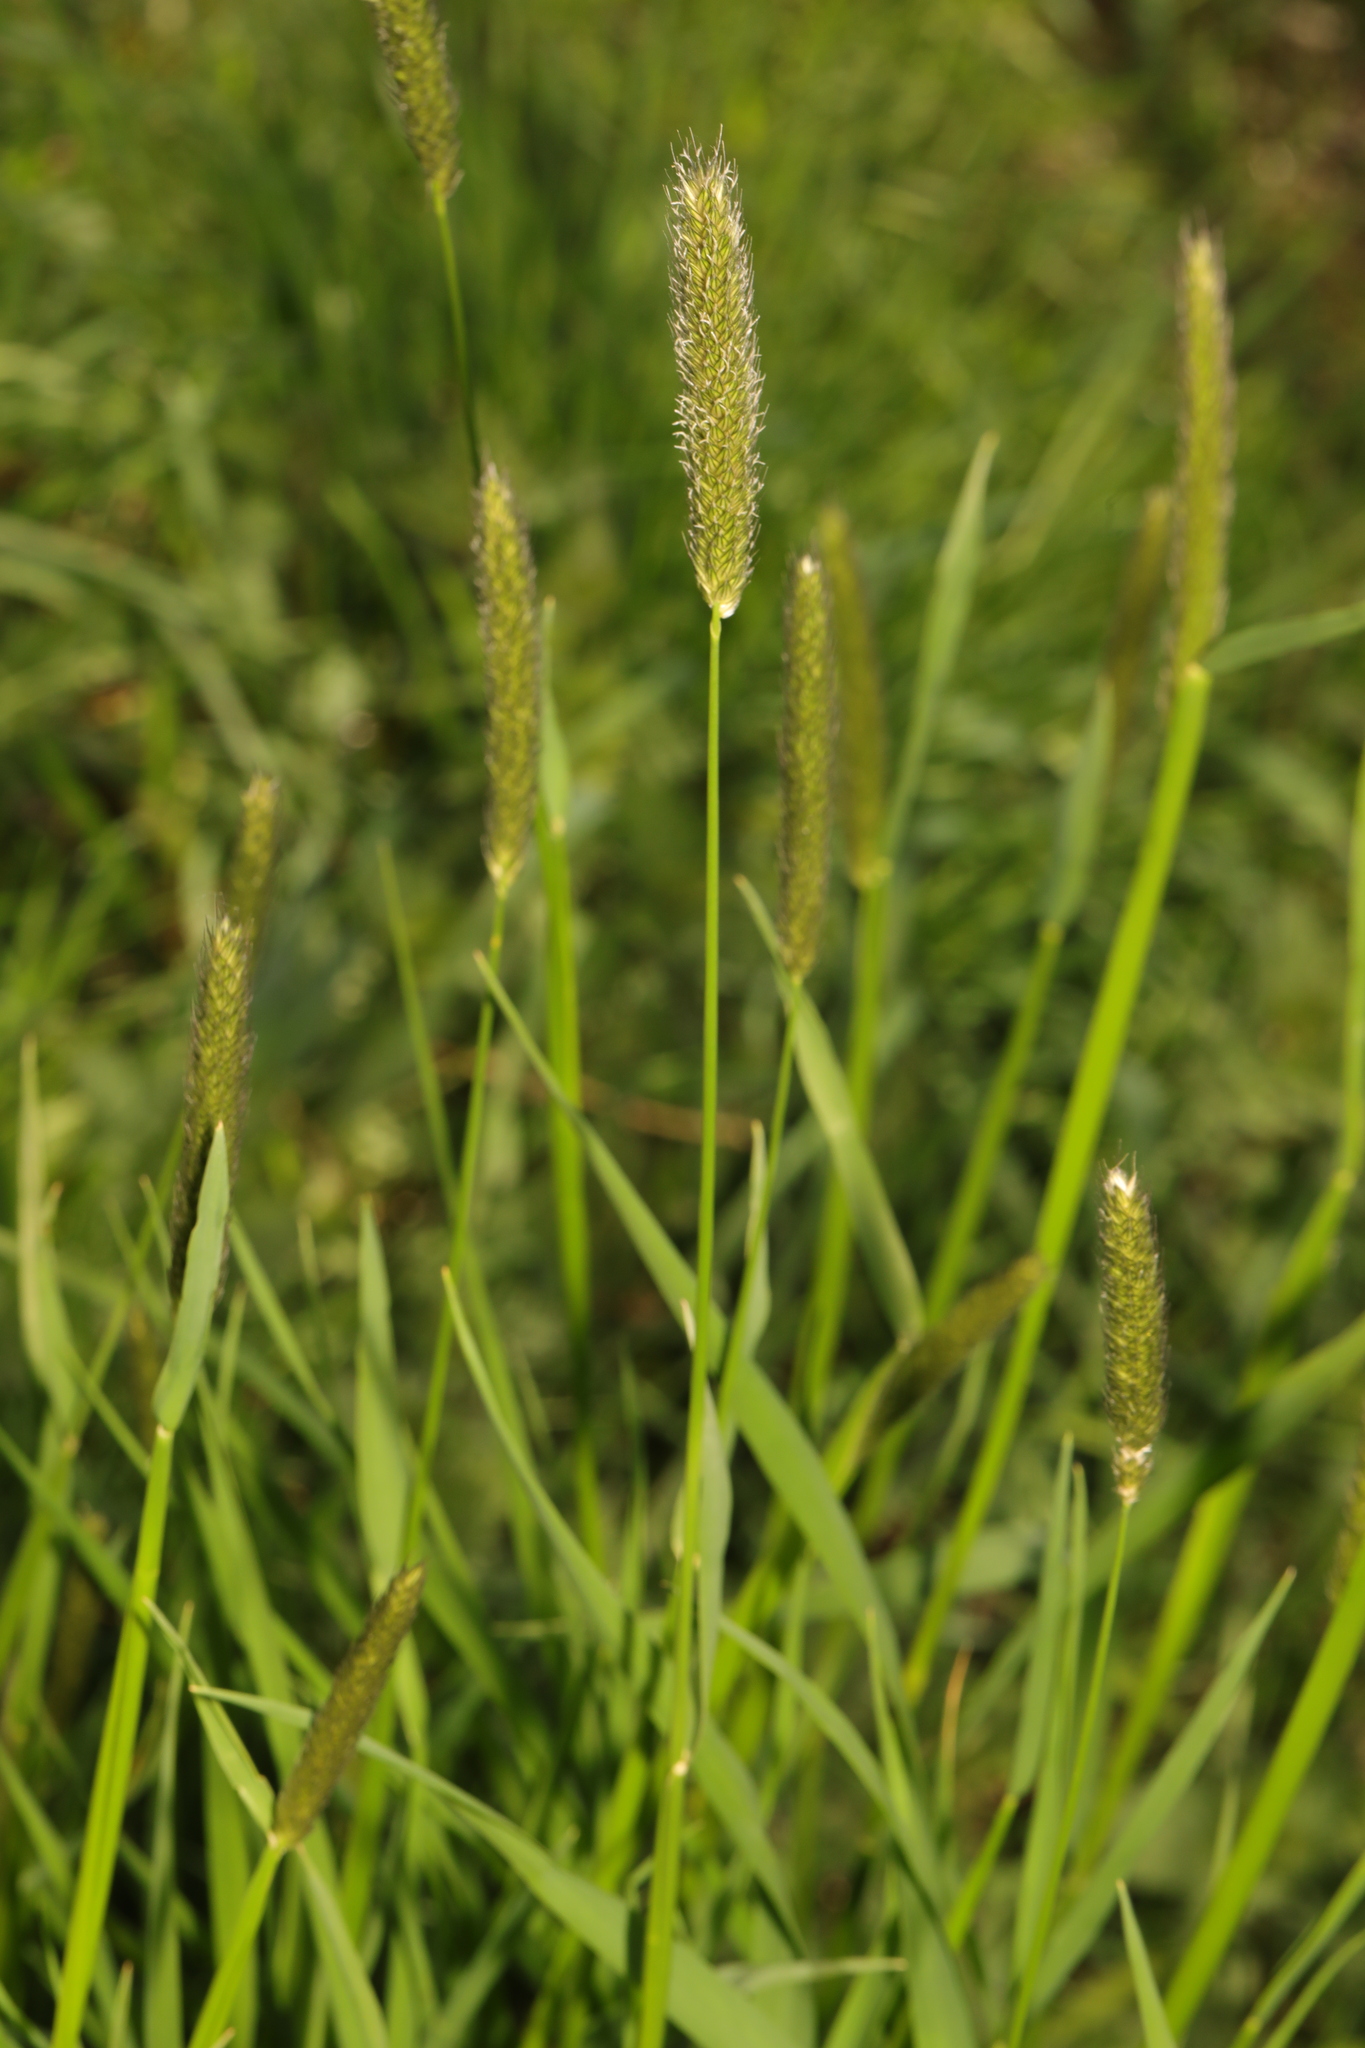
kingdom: Plantae
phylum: Tracheophyta
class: Liliopsida
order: Poales
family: Poaceae
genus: Alopecurus
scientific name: Alopecurus pratensis
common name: Meadow foxtail
